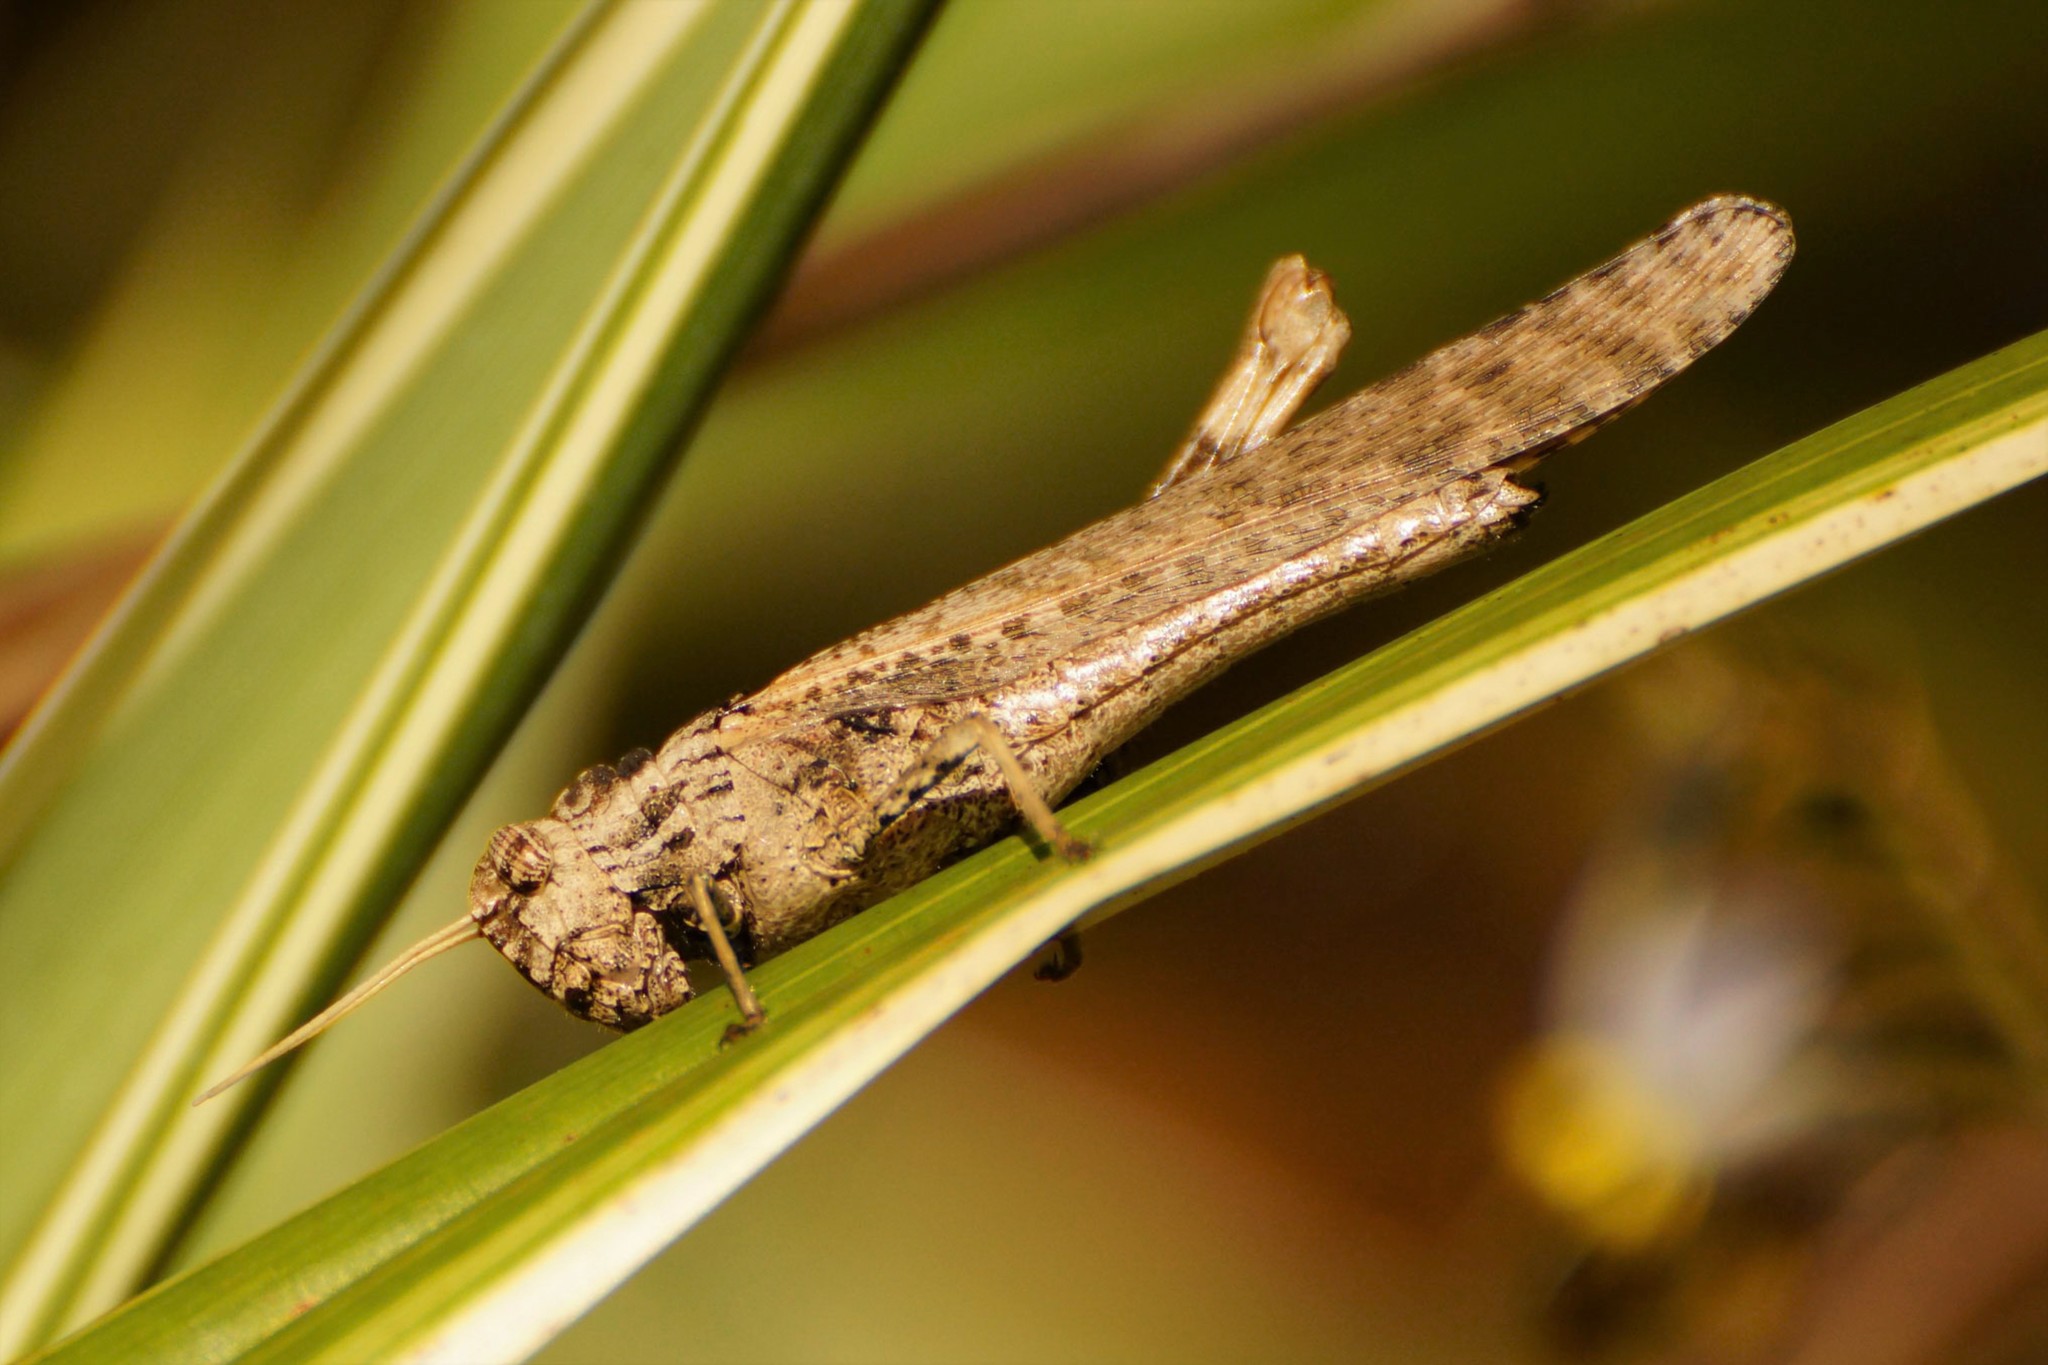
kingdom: Animalia
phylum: Arthropoda
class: Insecta
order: Orthoptera
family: Acrididae
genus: Macrolopholia
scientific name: Macrolopholia
